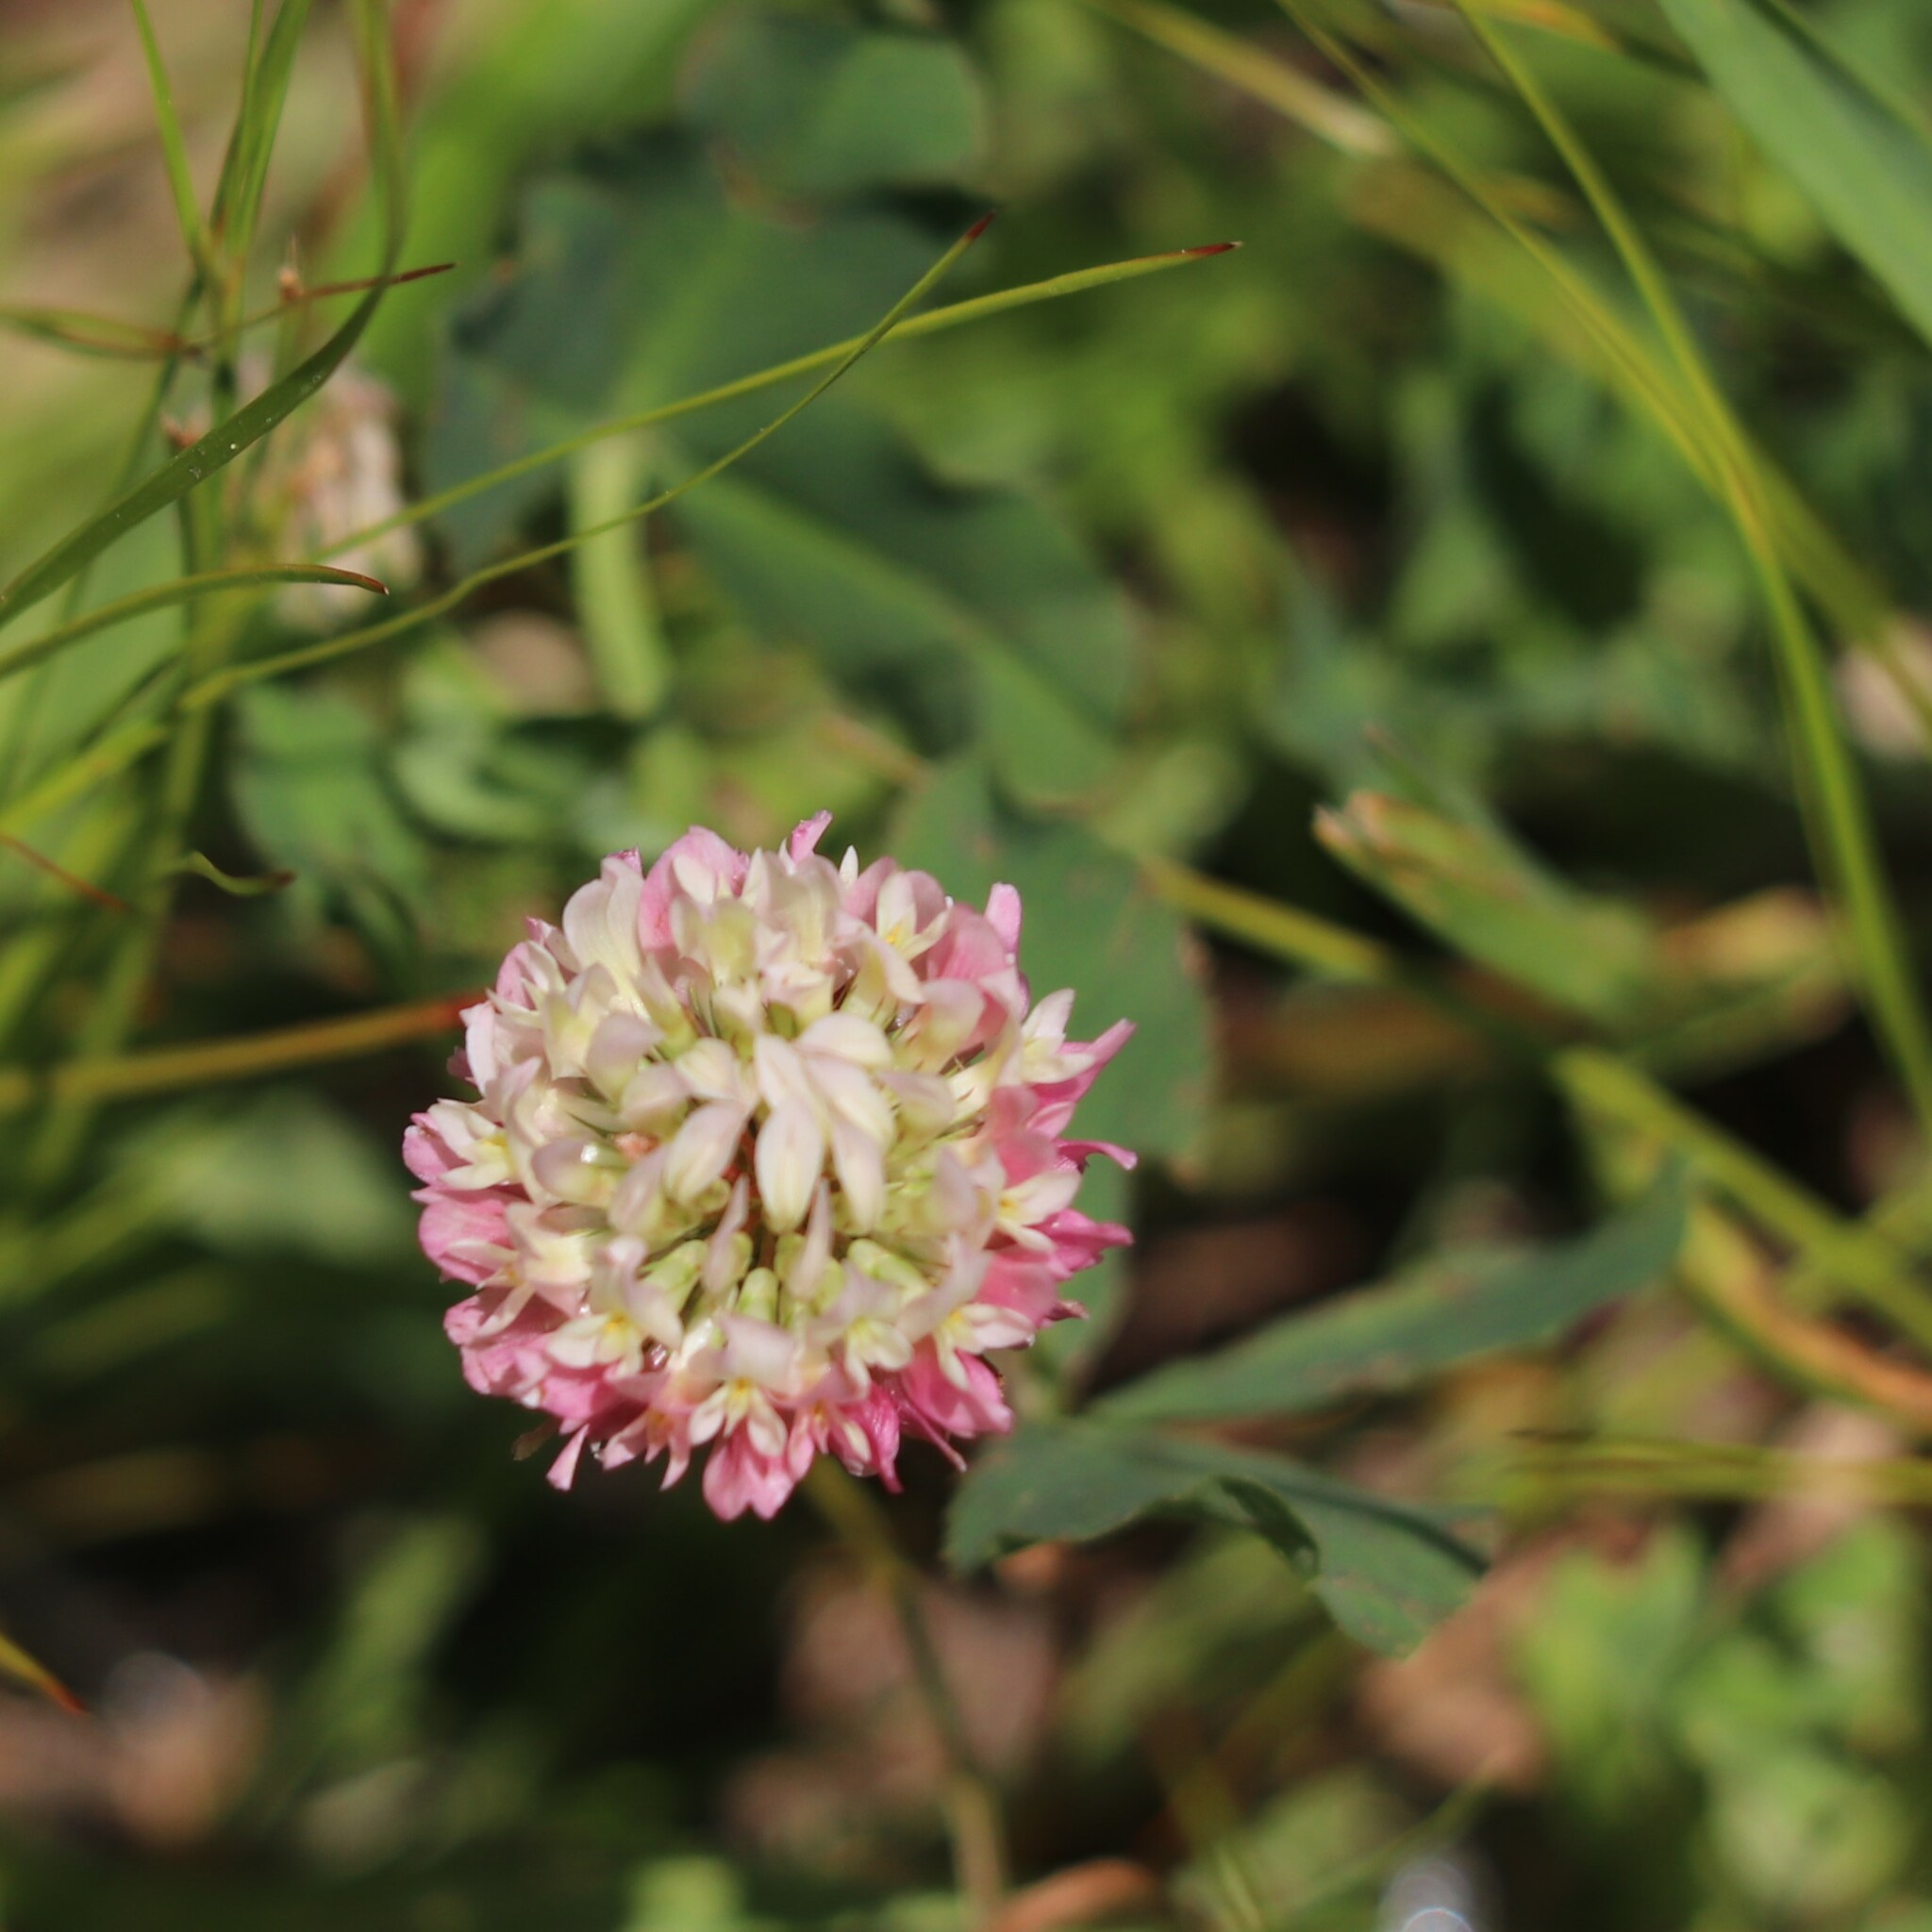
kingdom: Plantae
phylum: Tracheophyta
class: Magnoliopsida
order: Fabales
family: Fabaceae
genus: Trifolium
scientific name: Trifolium hybridum
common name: Alsike clover
